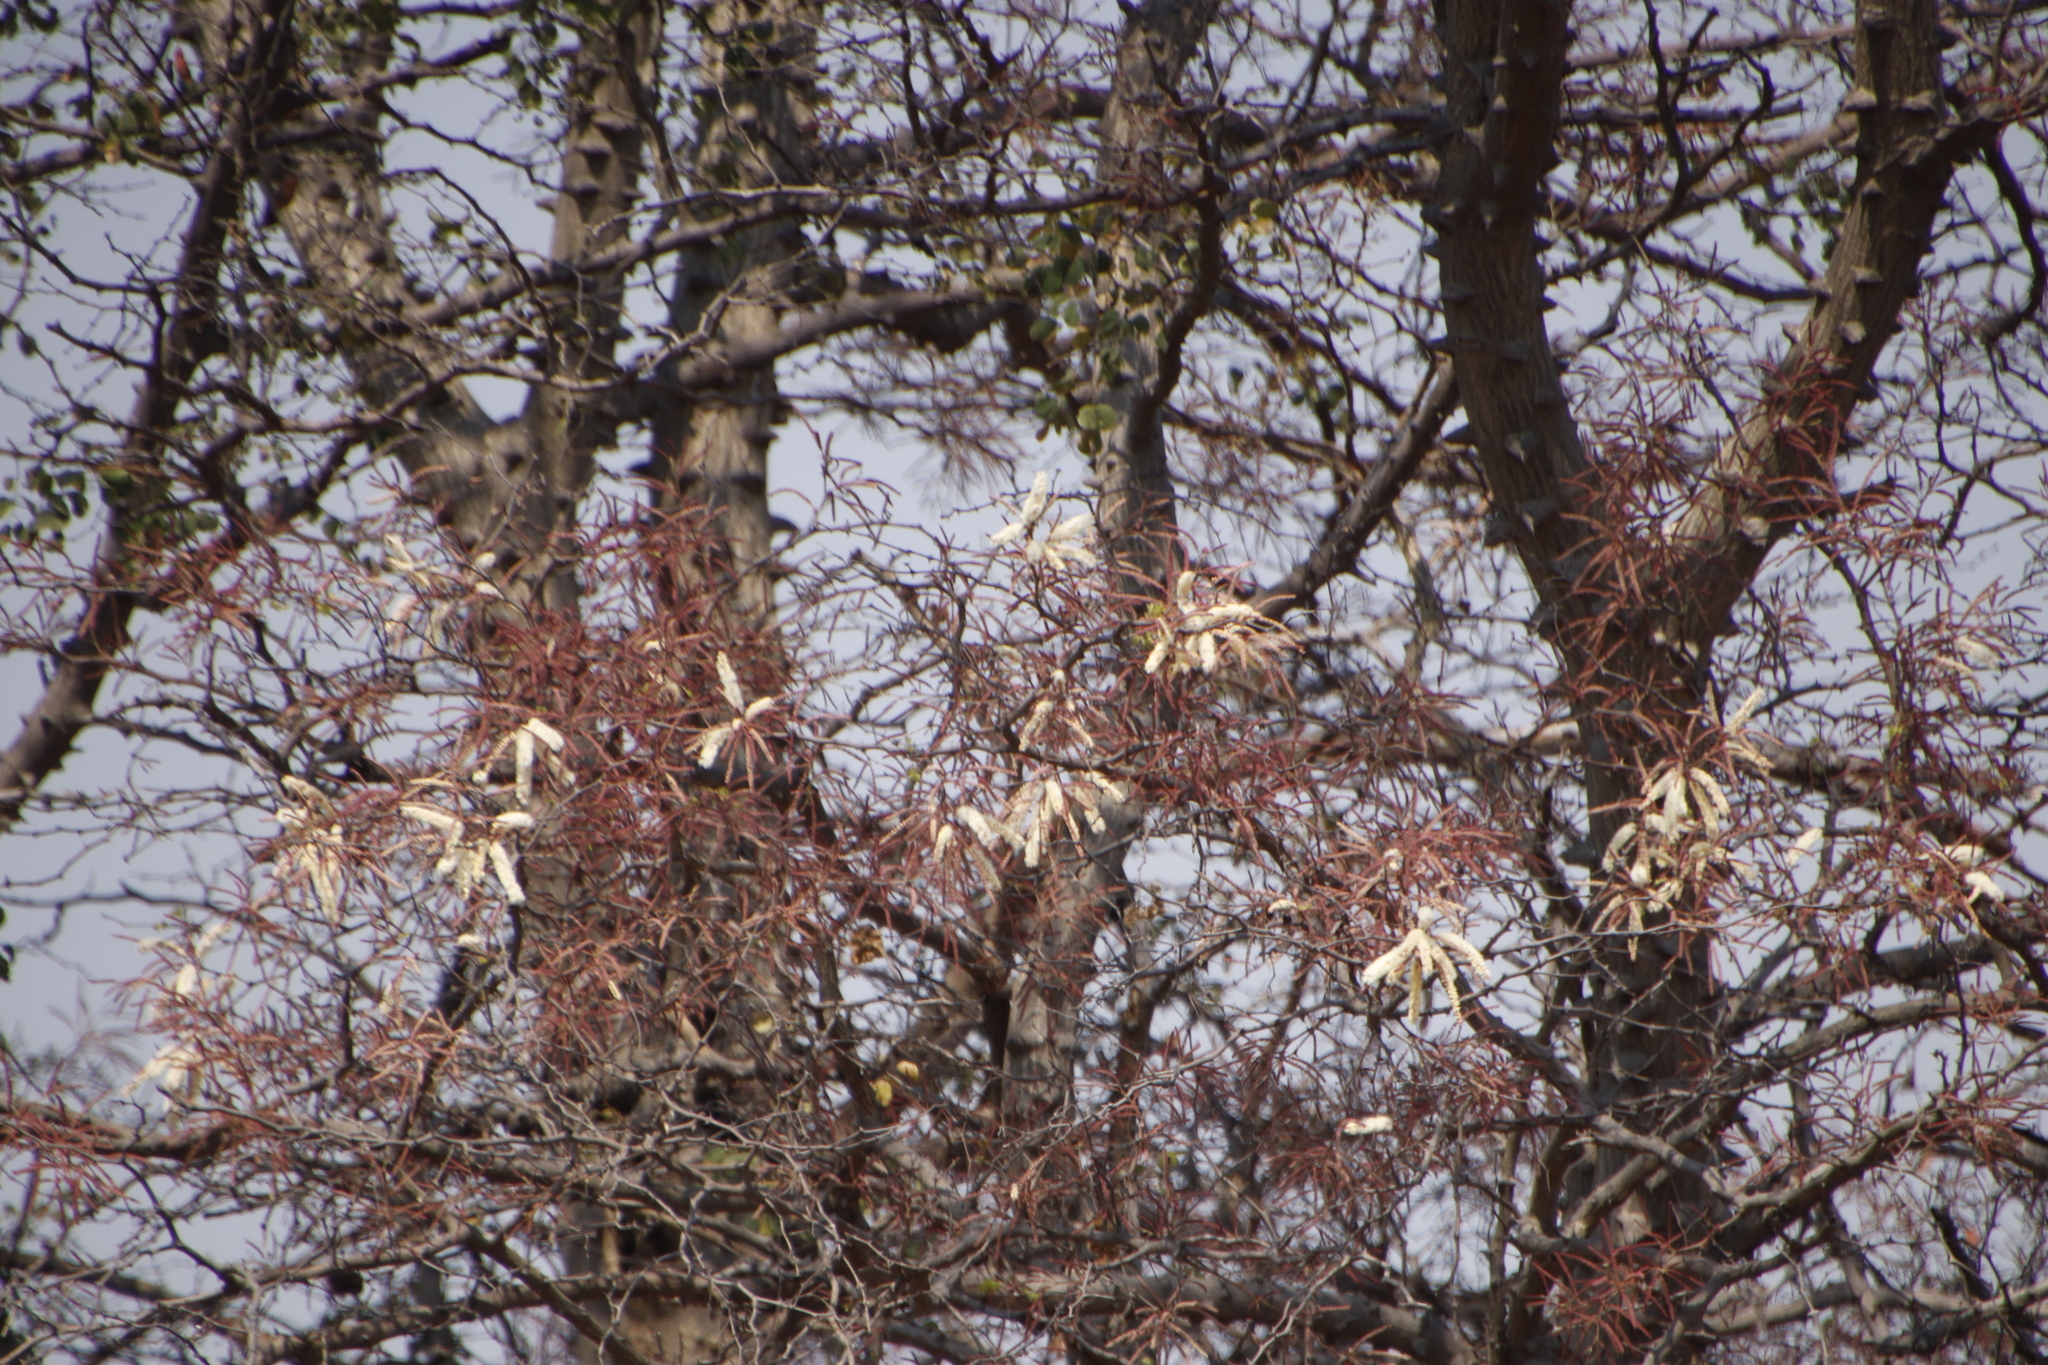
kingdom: Plantae
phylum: Tracheophyta
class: Magnoliopsida
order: Fabales
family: Fabaceae
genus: Senegalia
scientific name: Senegalia nigrescens
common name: Knobthorn
